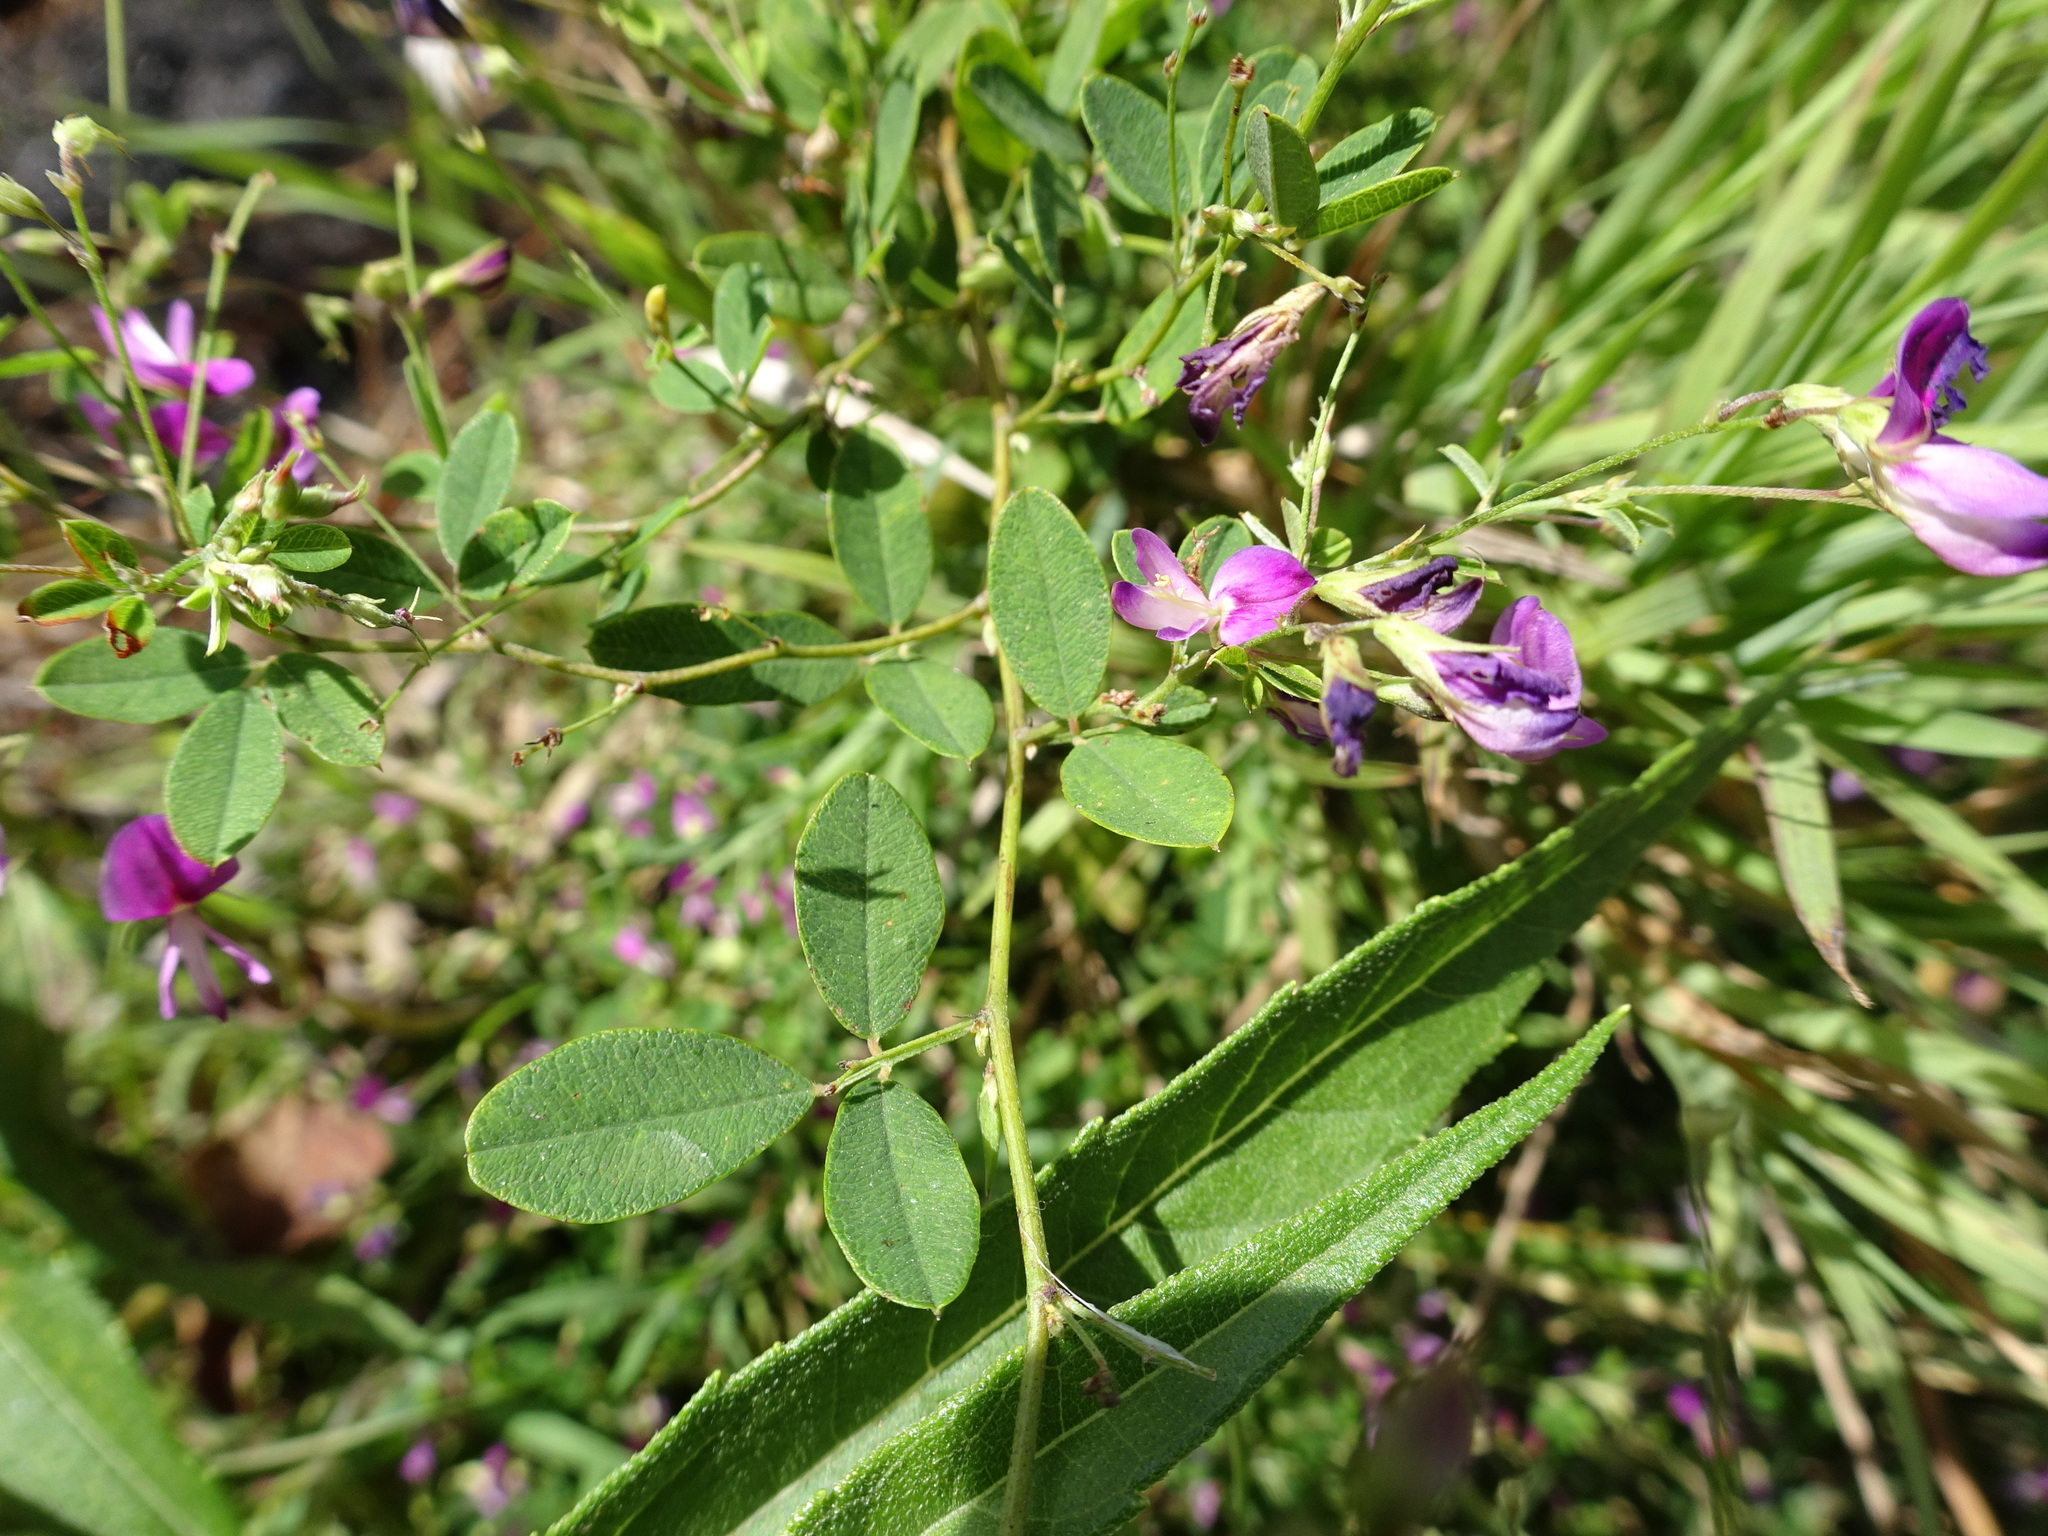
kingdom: Plantae
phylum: Tracheophyta
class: Magnoliopsida
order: Fabales
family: Fabaceae
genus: Lespedeza
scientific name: Lespedeza
